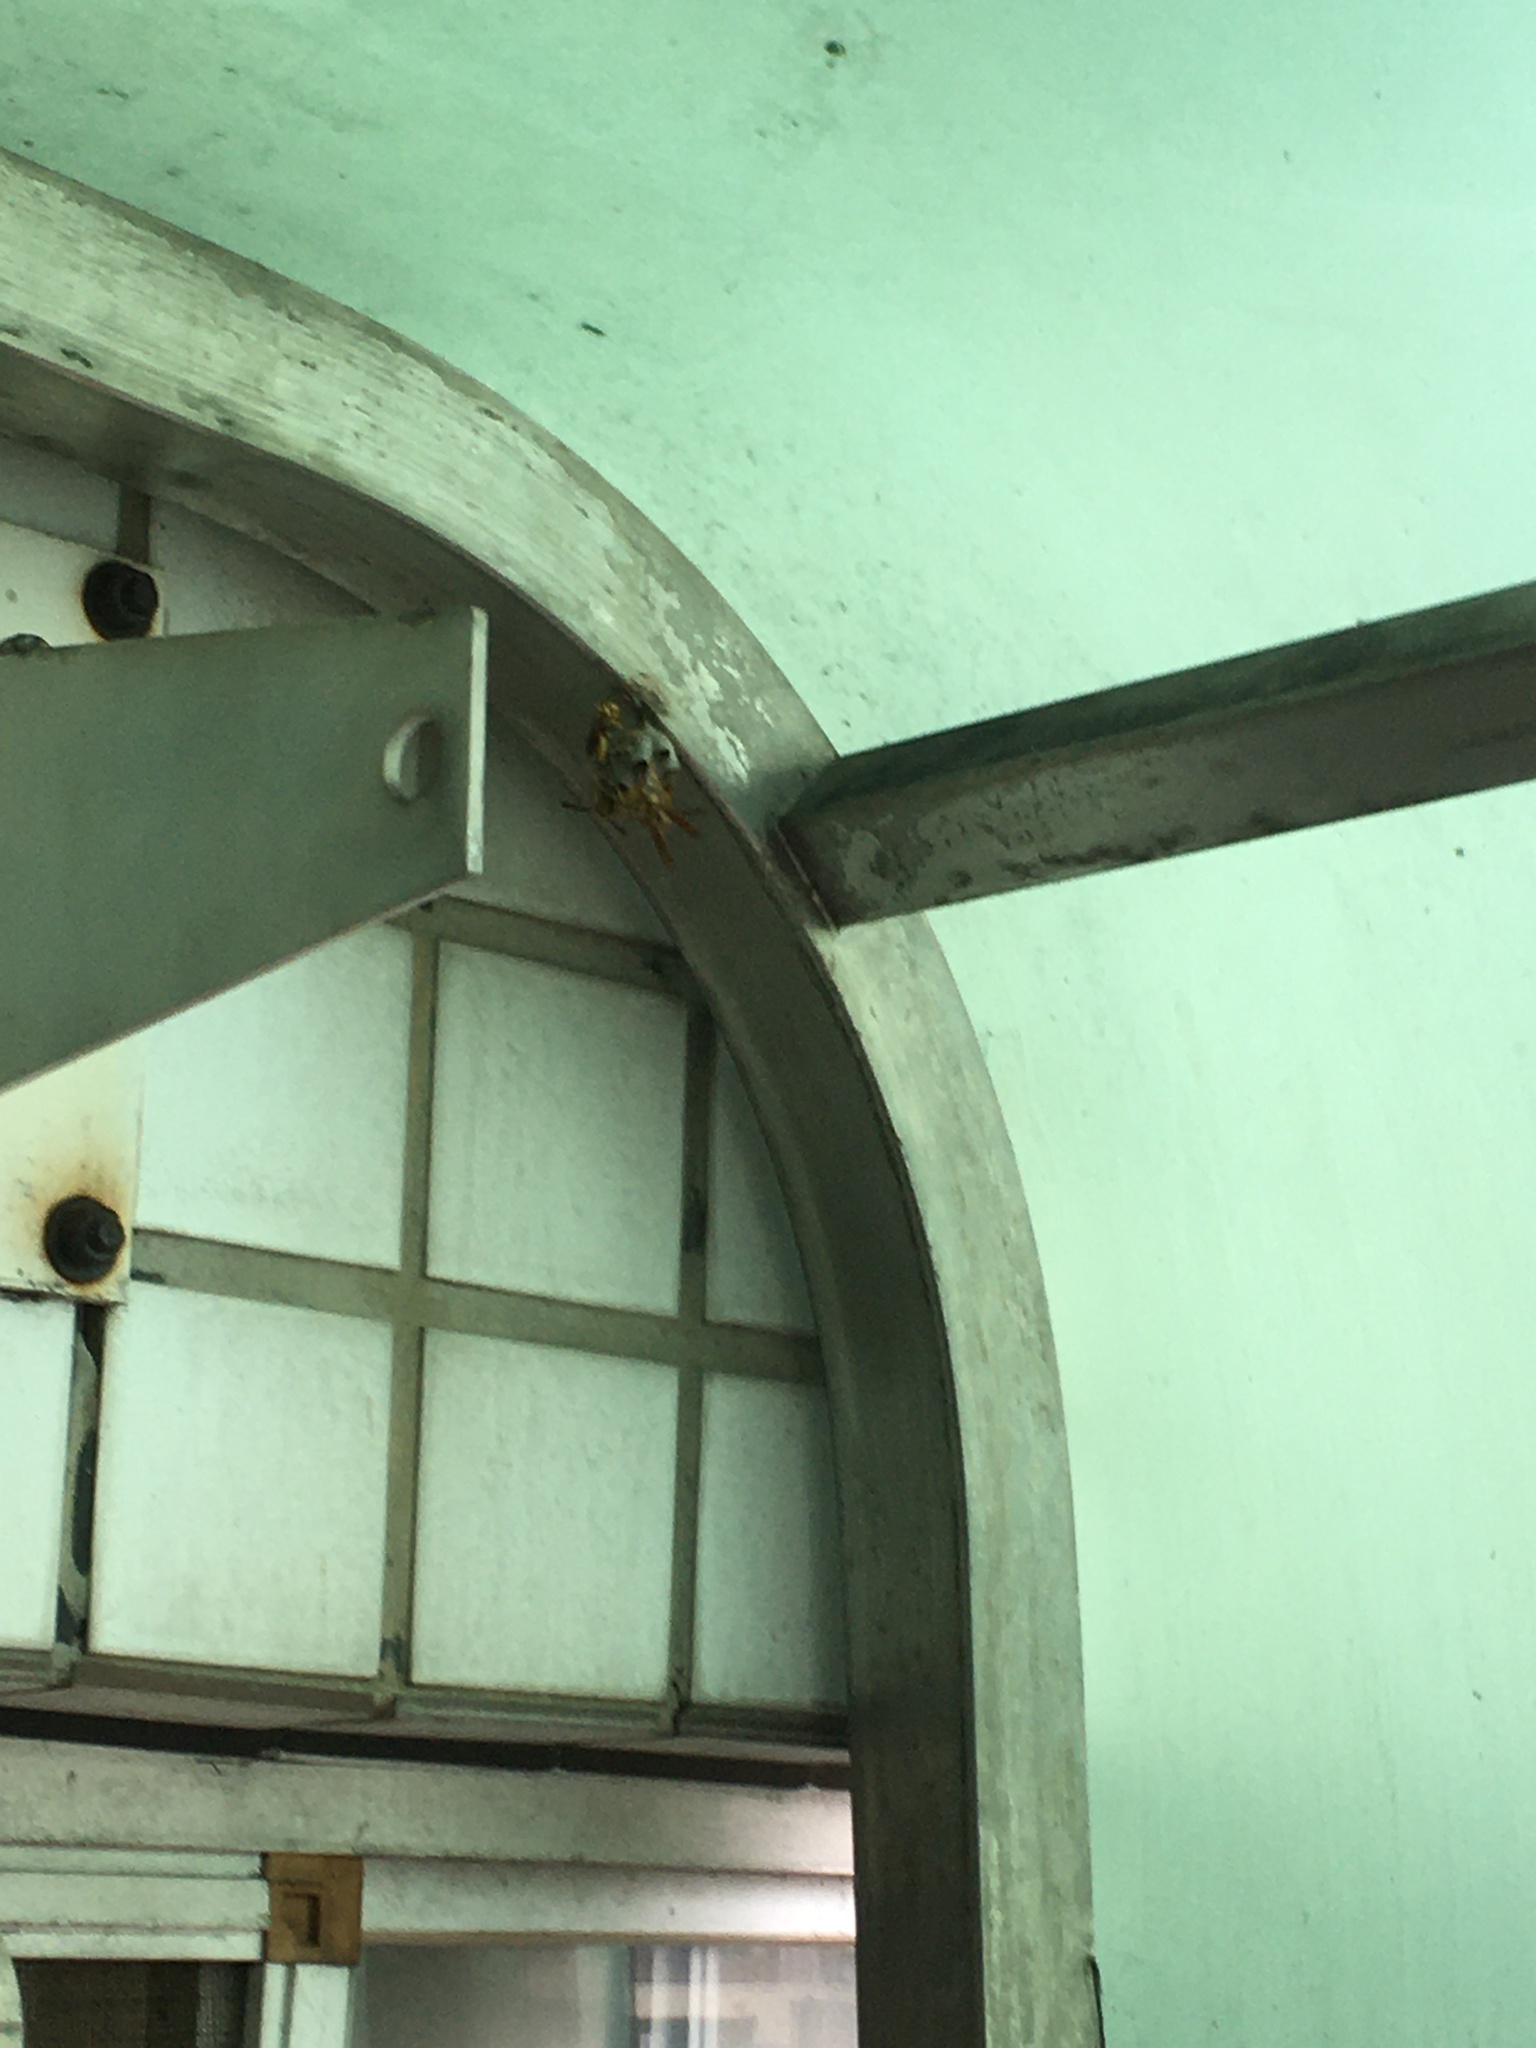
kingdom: Animalia
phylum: Arthropoda
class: Insecta
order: Hymenoptera
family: Eumenidae
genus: Polistes
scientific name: Polistes rothneyi
